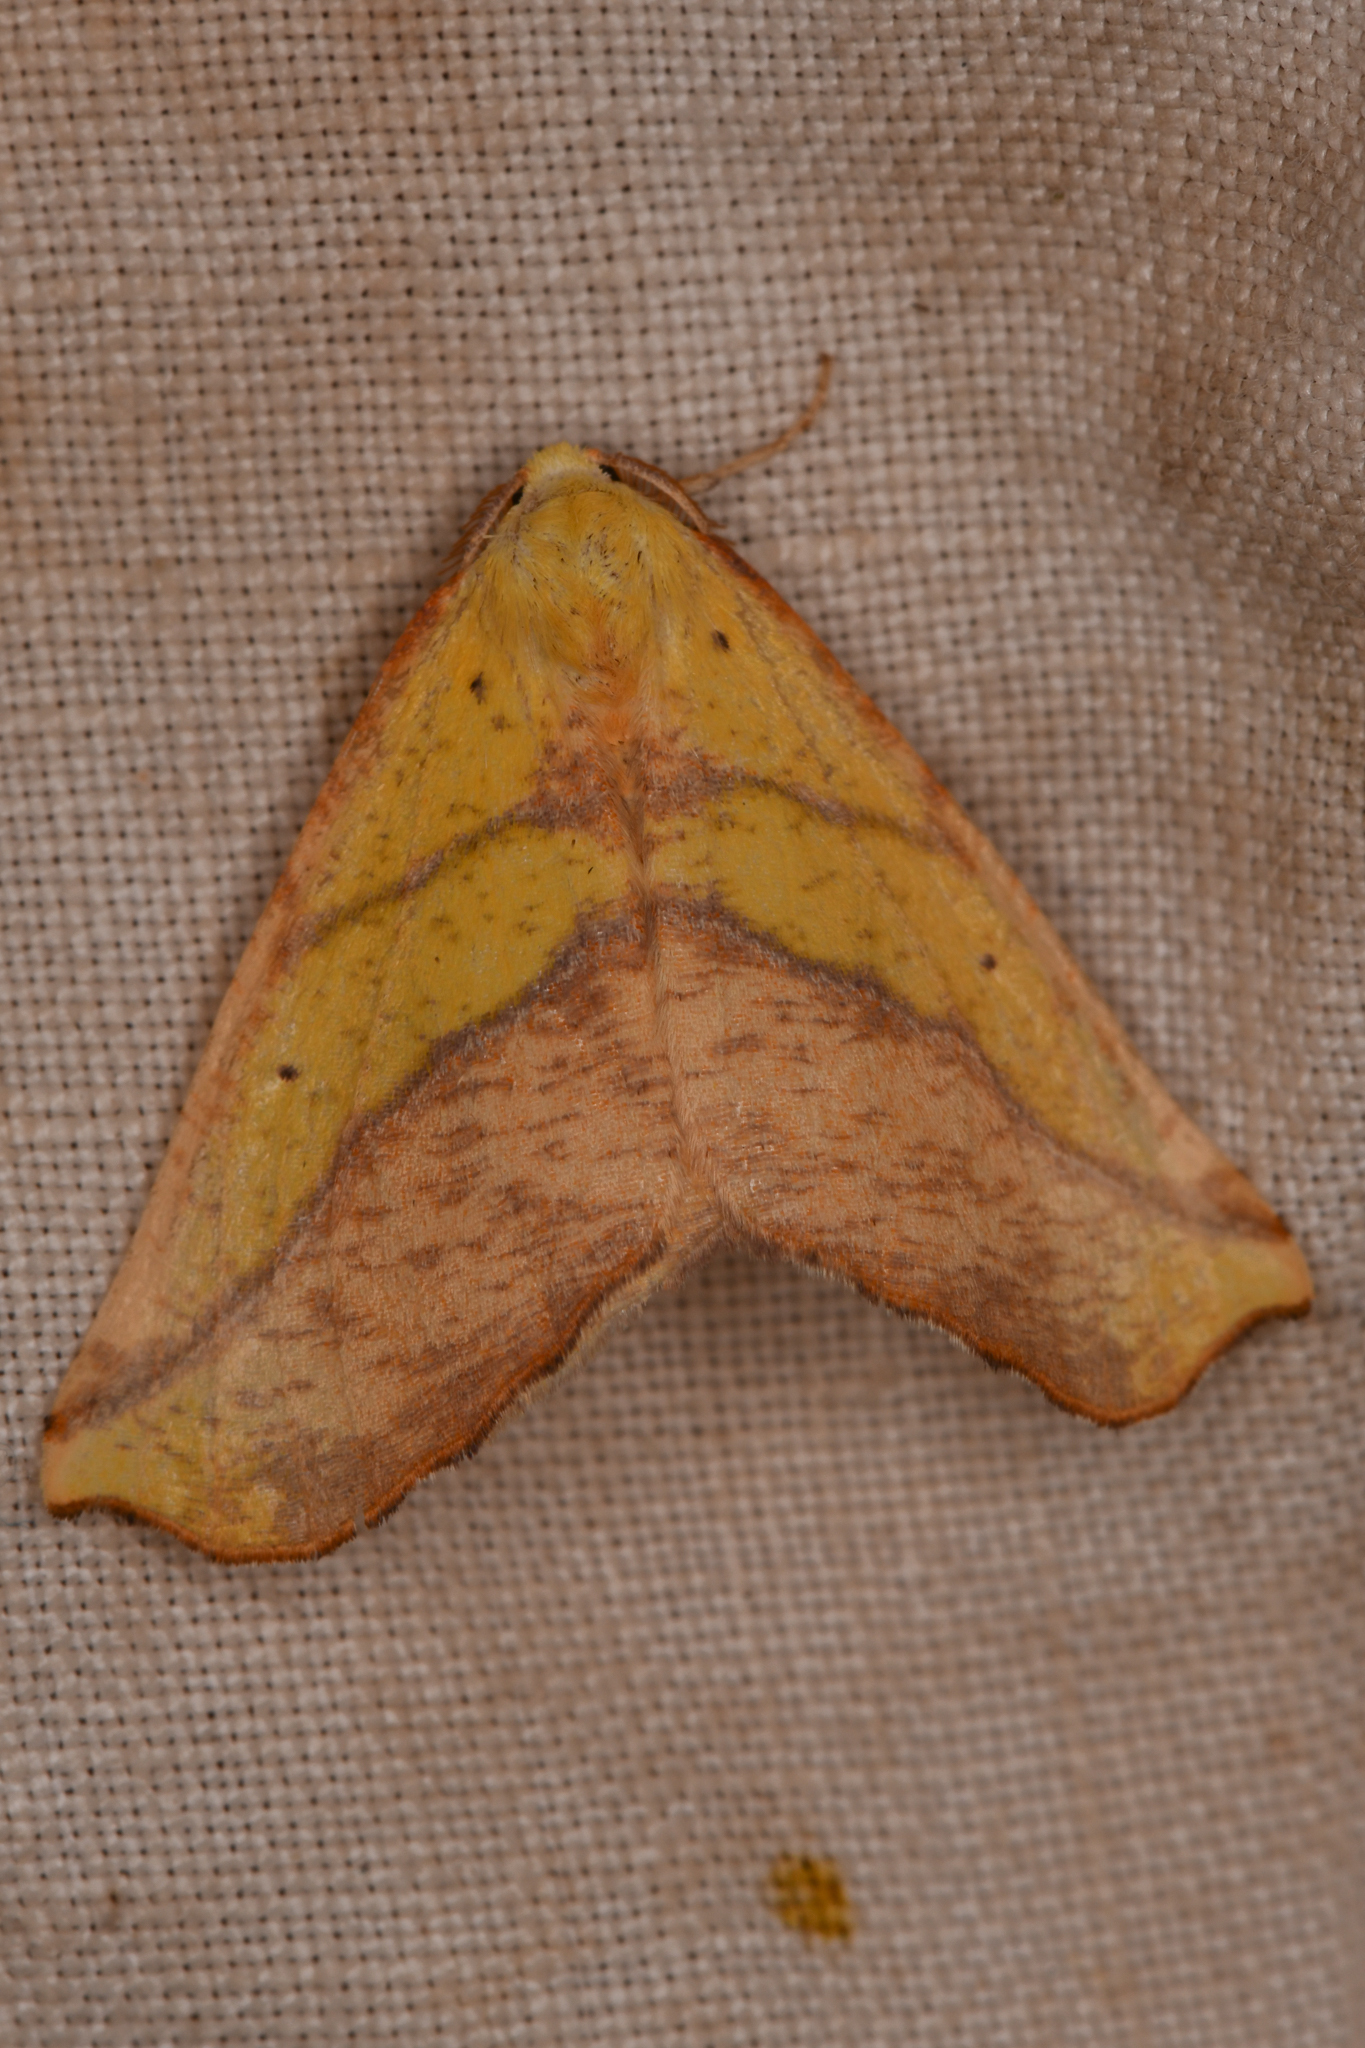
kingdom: Animalia
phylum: Arthropoda
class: Insecta
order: Lepidoptera
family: Geometridae
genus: Sicya
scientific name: Sicya macularia
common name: Sharp-lined yellow
